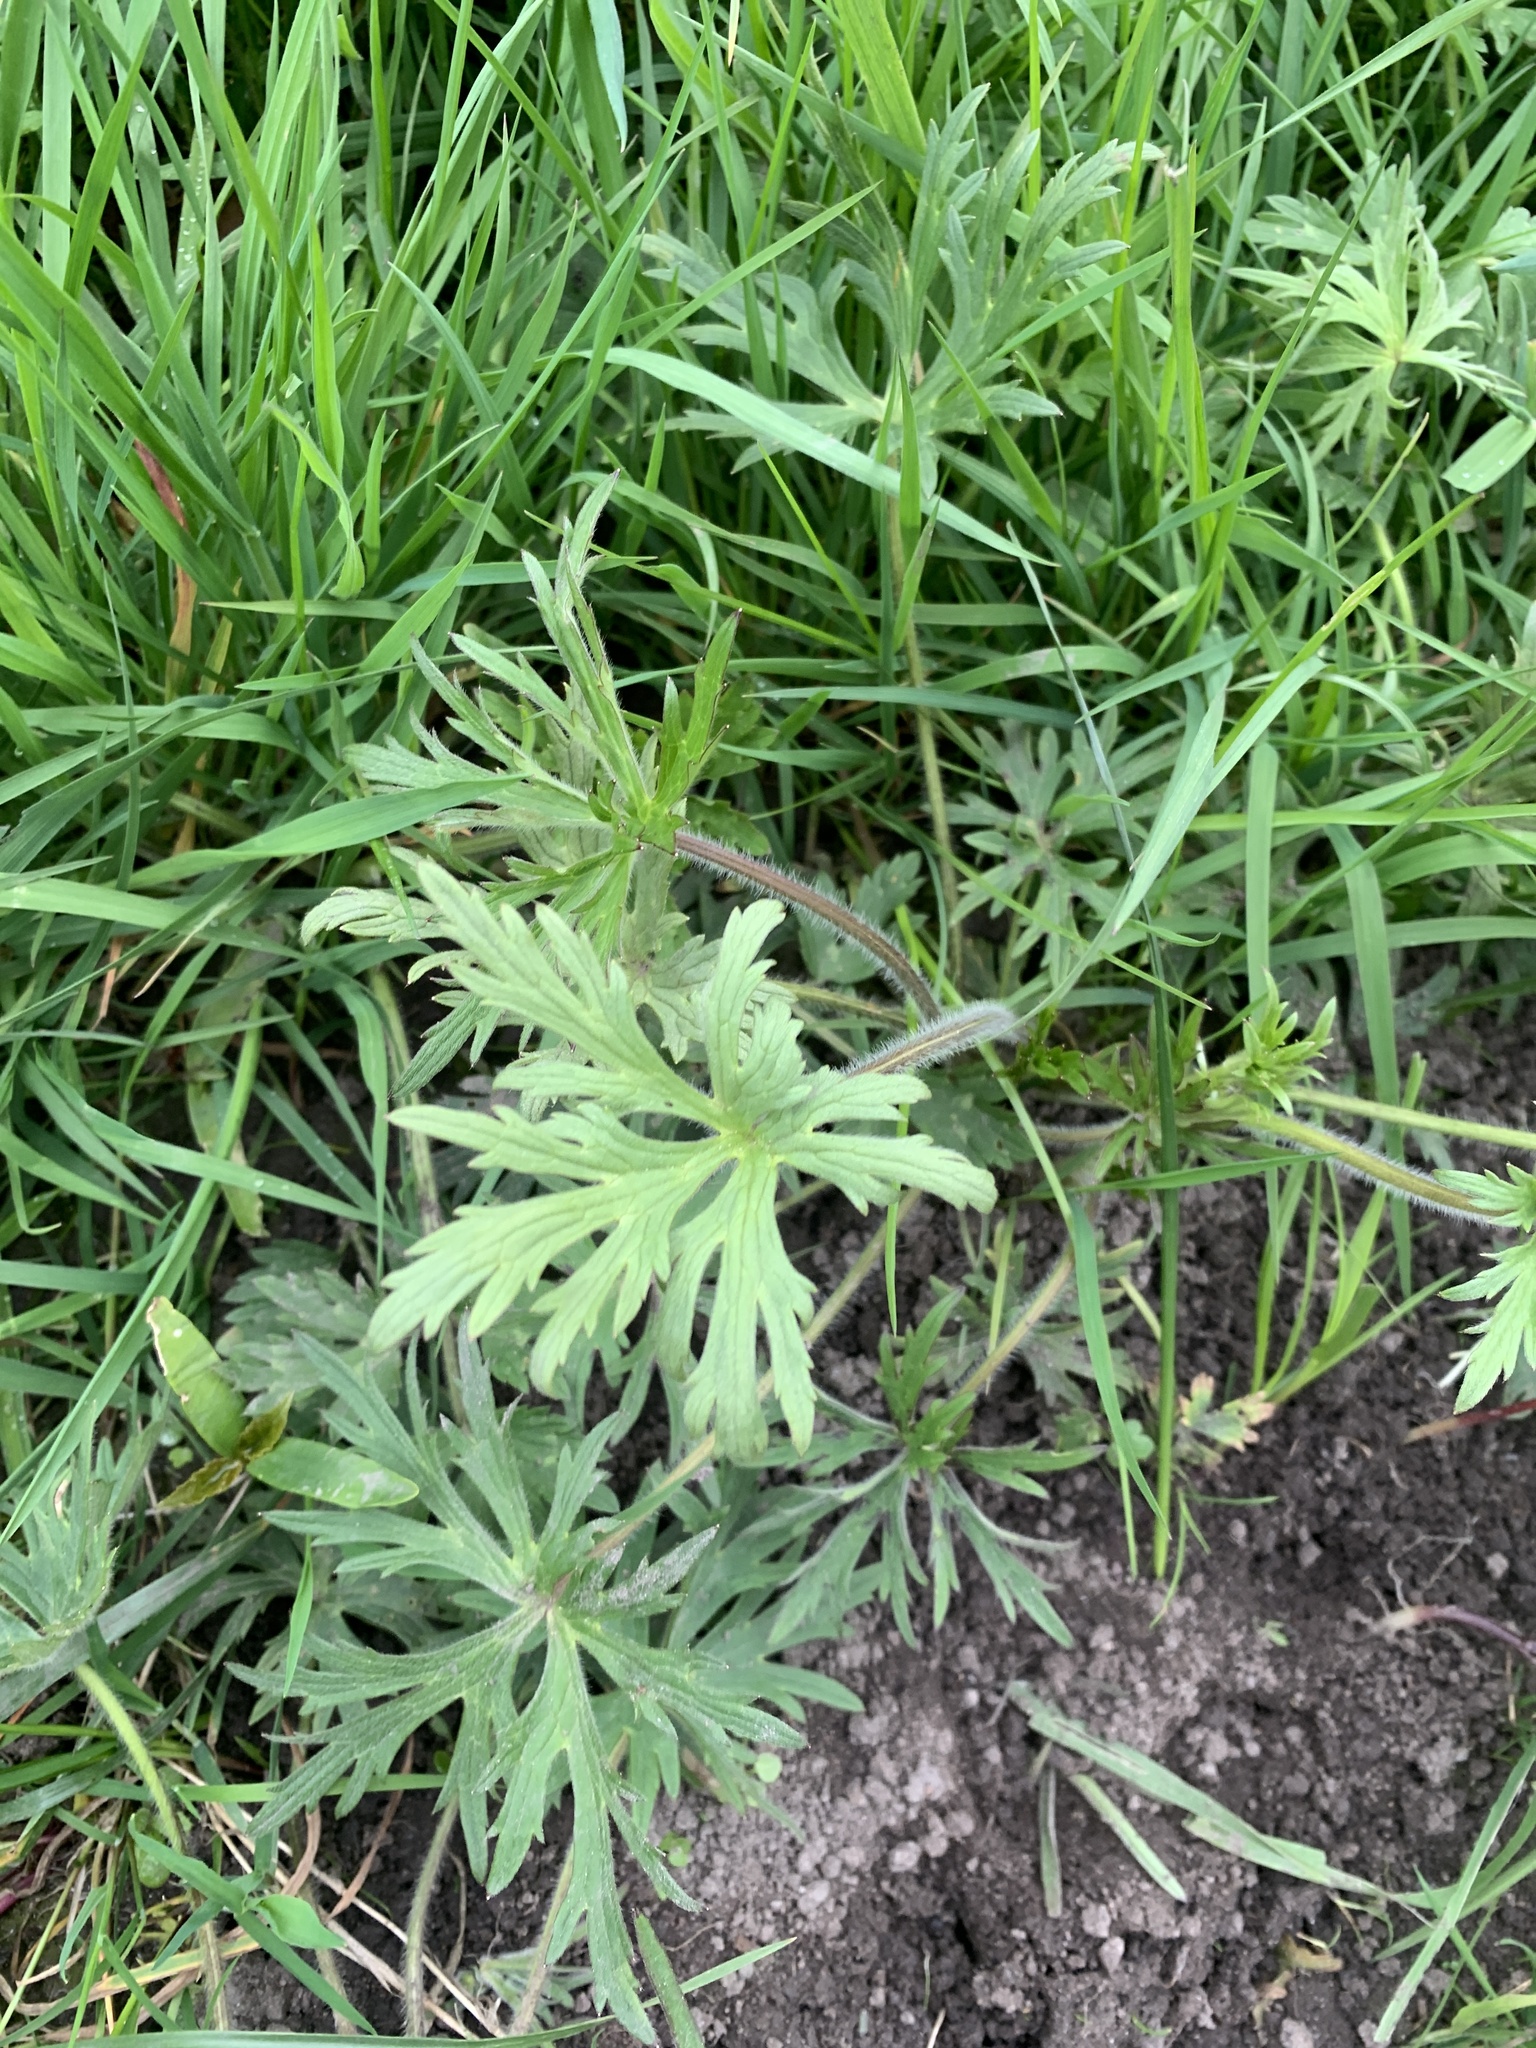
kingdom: Plantae
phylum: Tracheophyta
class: Magnoliopsida
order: Ranunculales
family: Ranunculaceae
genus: Ranunculus
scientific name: Ranunculus acris
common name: Meadow buttercup
